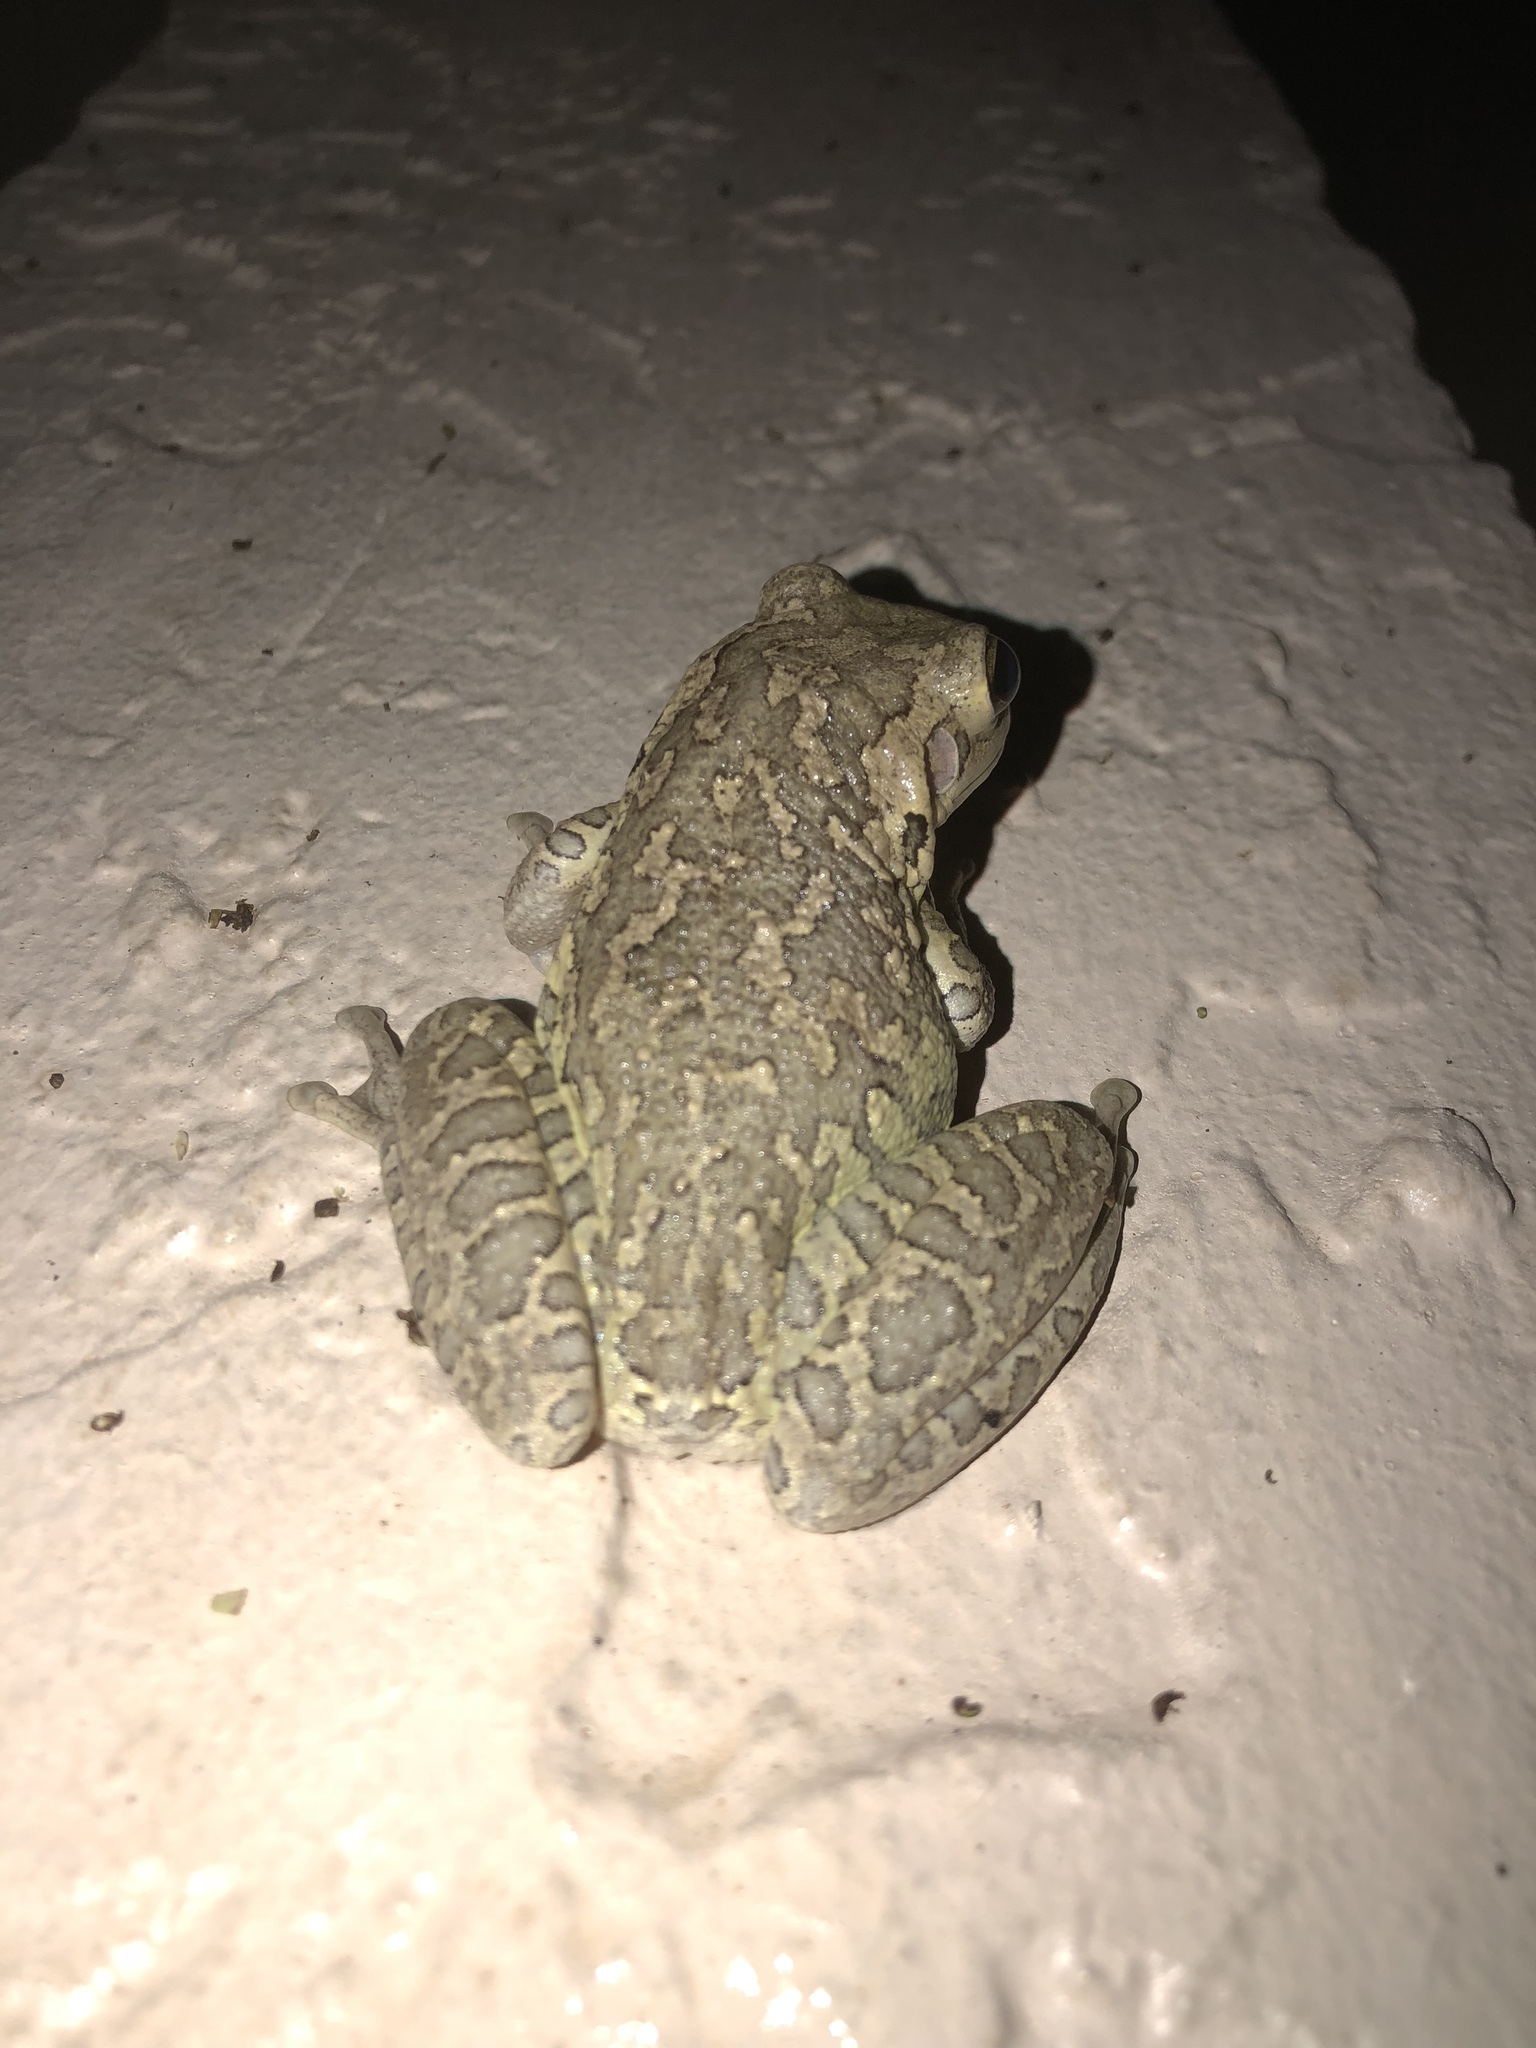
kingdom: Animalia
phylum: Chordata
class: Amphibia
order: Anura
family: Hylidae
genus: Osteopilus
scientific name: Osteopilus septentrionalis
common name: Cuban treefrog
